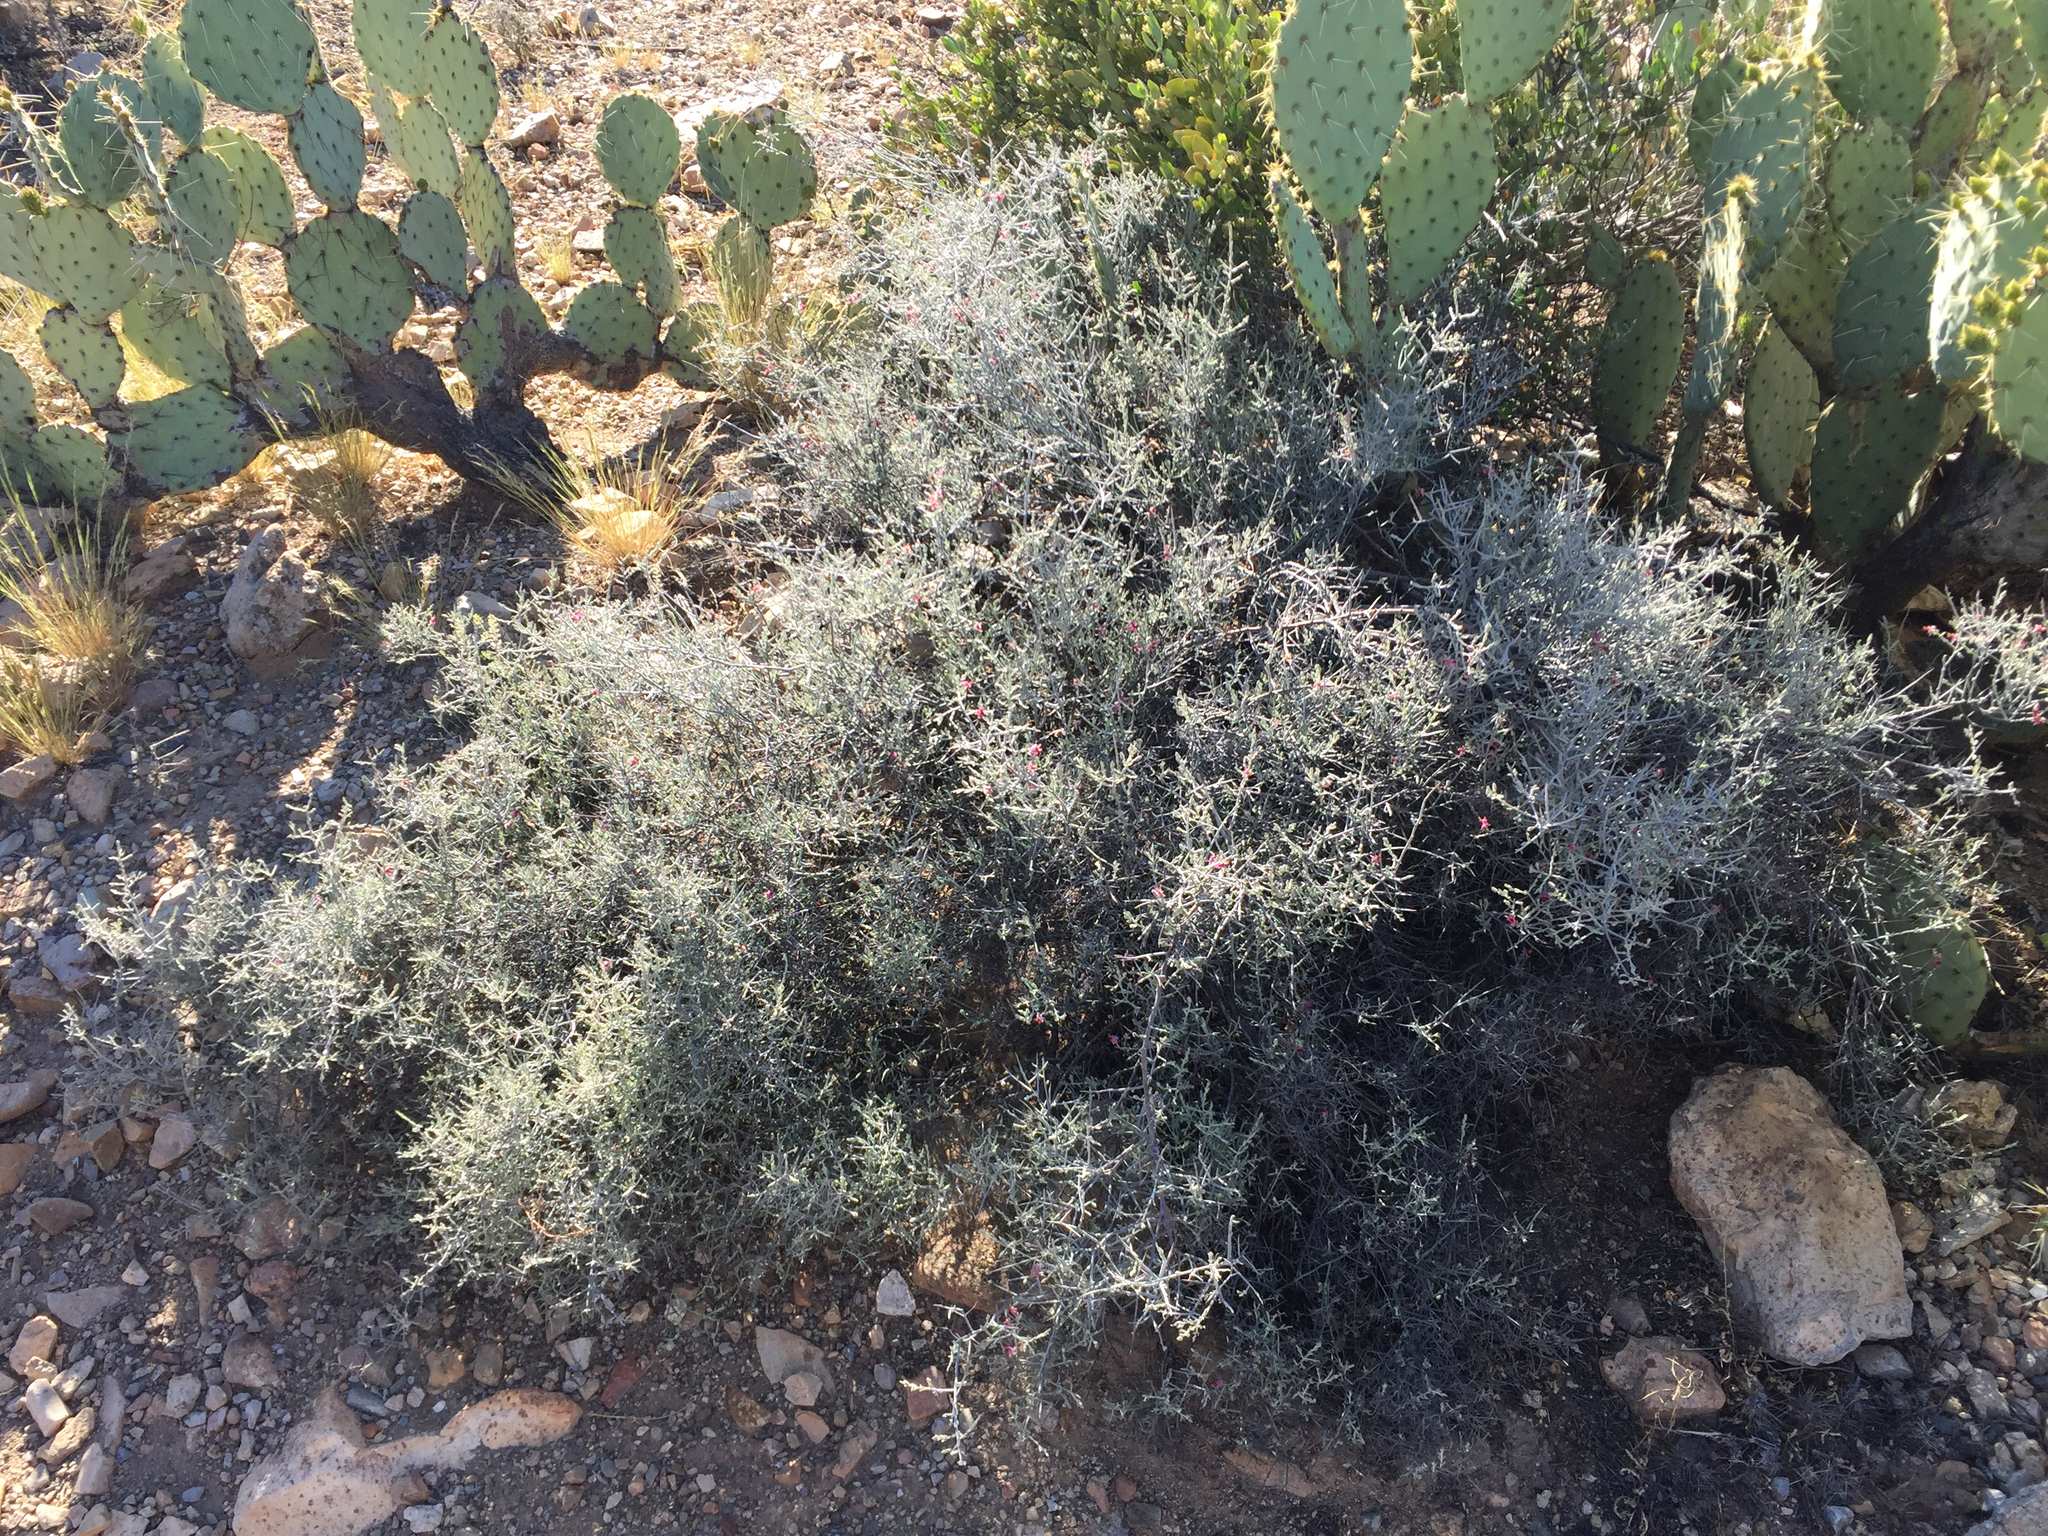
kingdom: Plantae
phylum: Tracheophyta
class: Magnoliopsida
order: Zygophyllales
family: Krameriaceae
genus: Krameria
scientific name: Krameria bicolor
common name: White ratany
